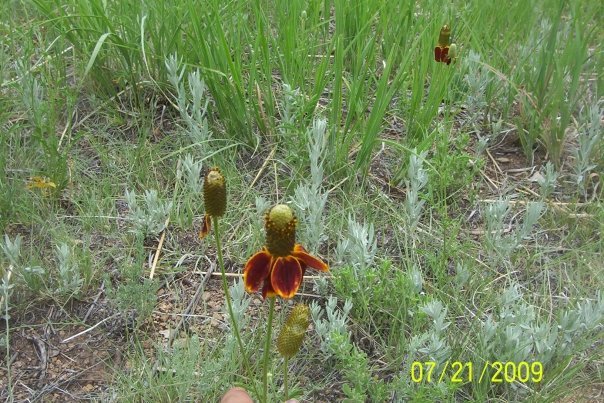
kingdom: Plantae
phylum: Tracheophyta
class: Magnoliopsida
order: Asterales
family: Asteraceae
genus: Ratibida
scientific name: Ratibida columnifera
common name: Prairie coneflower
